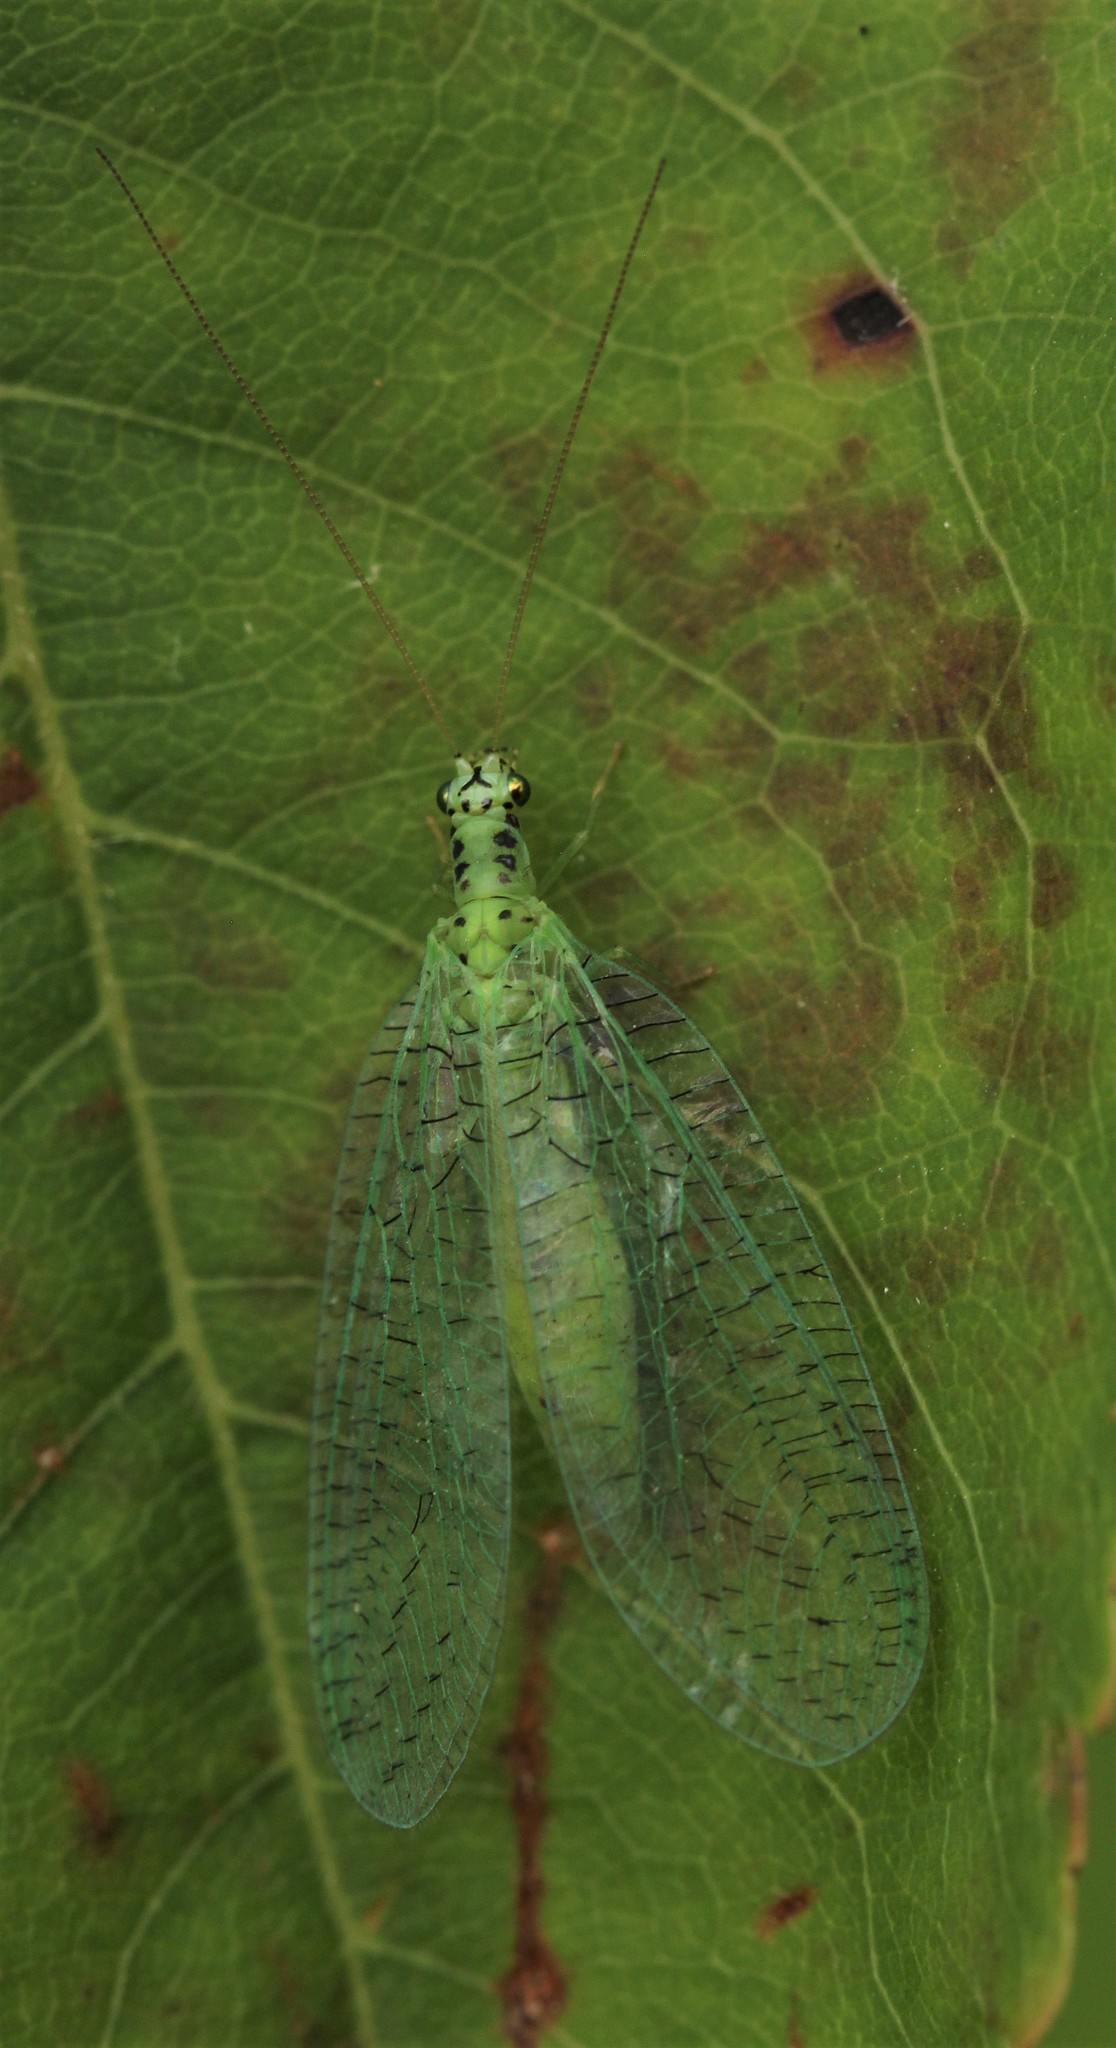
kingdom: Animalia
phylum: Arthropoda
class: Insecta
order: Neuroptera
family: Chrysopidae
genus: Chrysopa
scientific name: Chrysopa chi
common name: X-marked green lacewing
